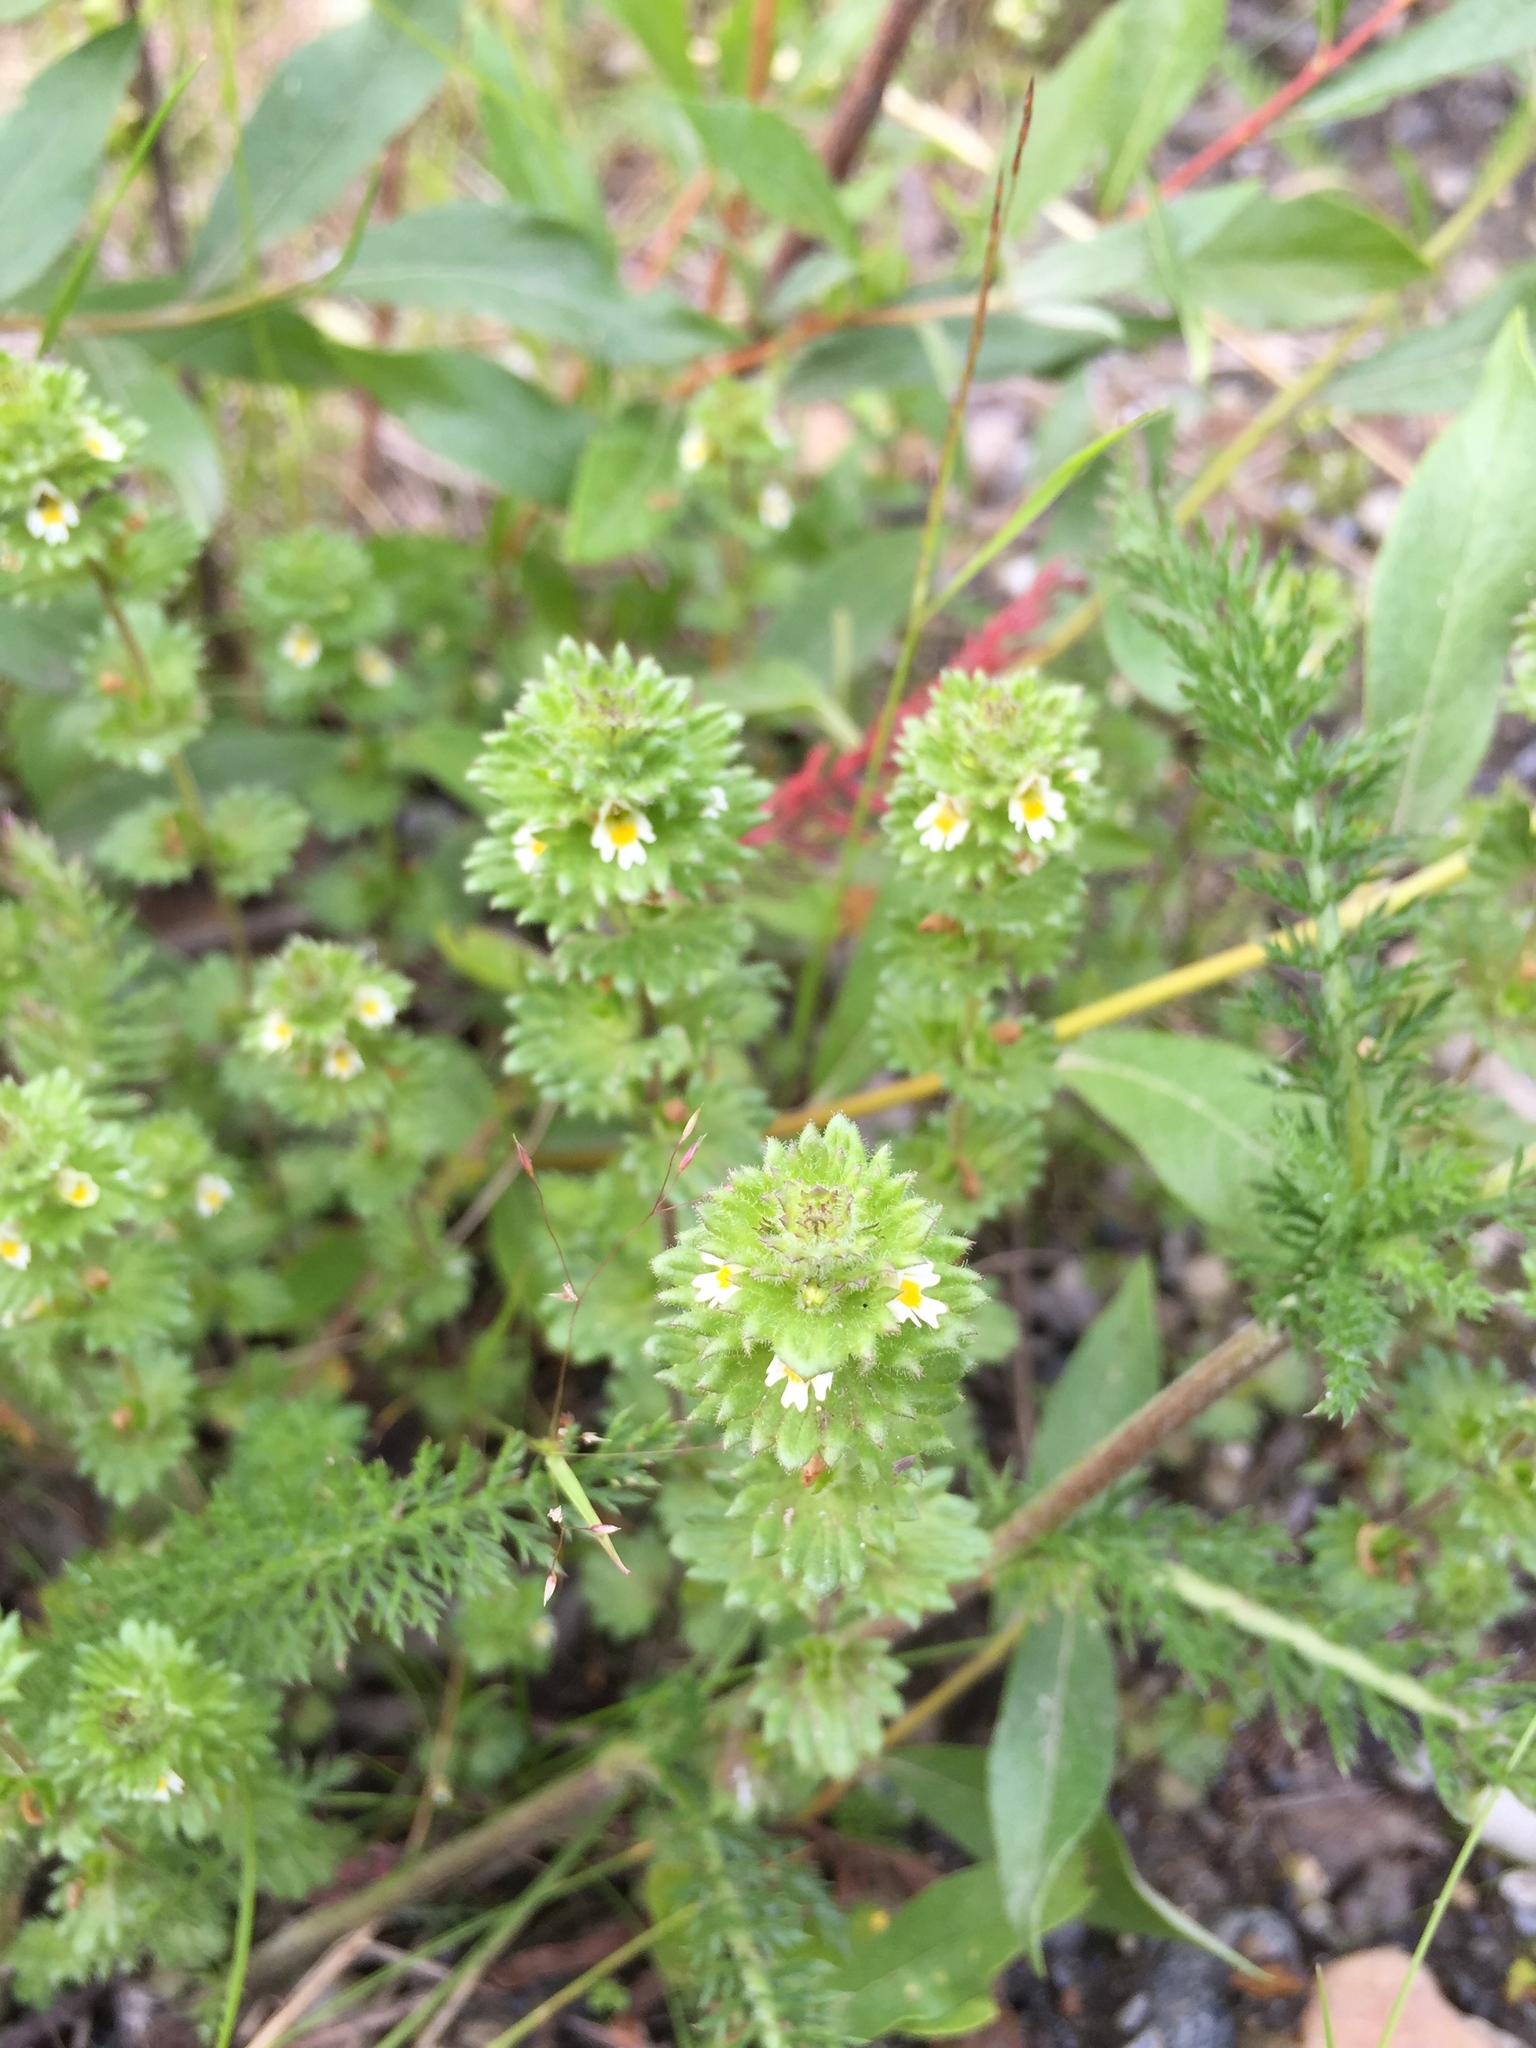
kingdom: Plantae
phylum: Tracheophyta
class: Magnoliopsida
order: Lamiales
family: Orobanchaceae
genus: Euphrasia
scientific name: Euphrasia subarctica
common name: Subarctic eyebright
